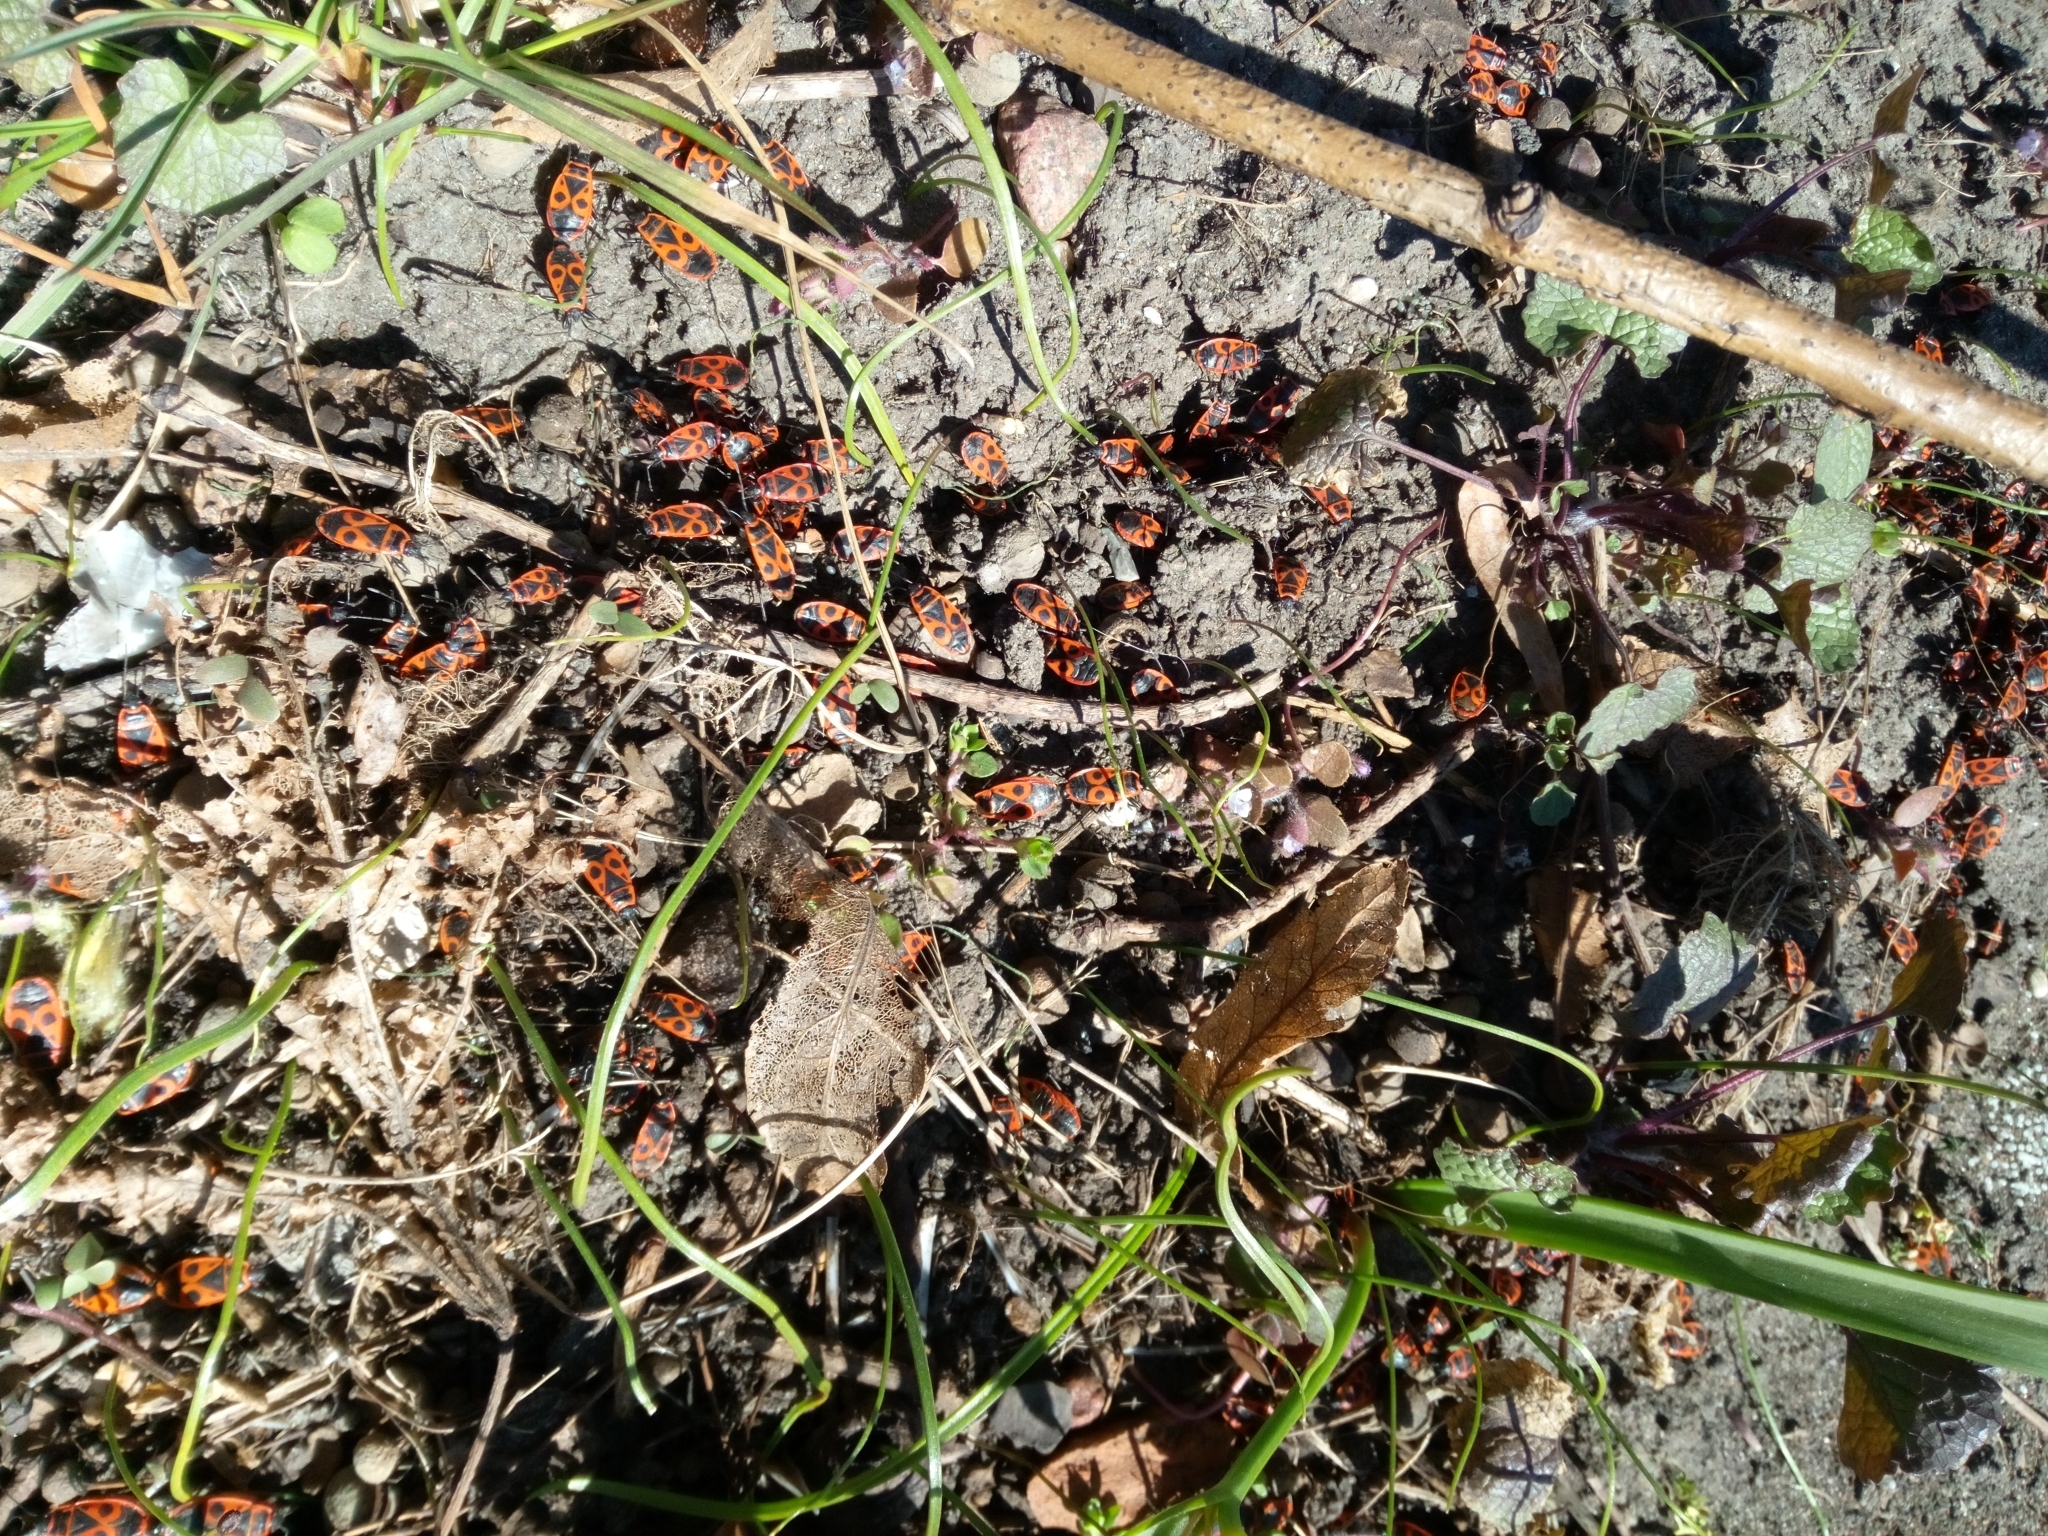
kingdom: Animalia
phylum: Arthropoda
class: Insecta
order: Hemiptera
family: Pyrrhocoridae
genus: Pyrrhocoris
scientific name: Pyrrhocoris apterus
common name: Firebug
